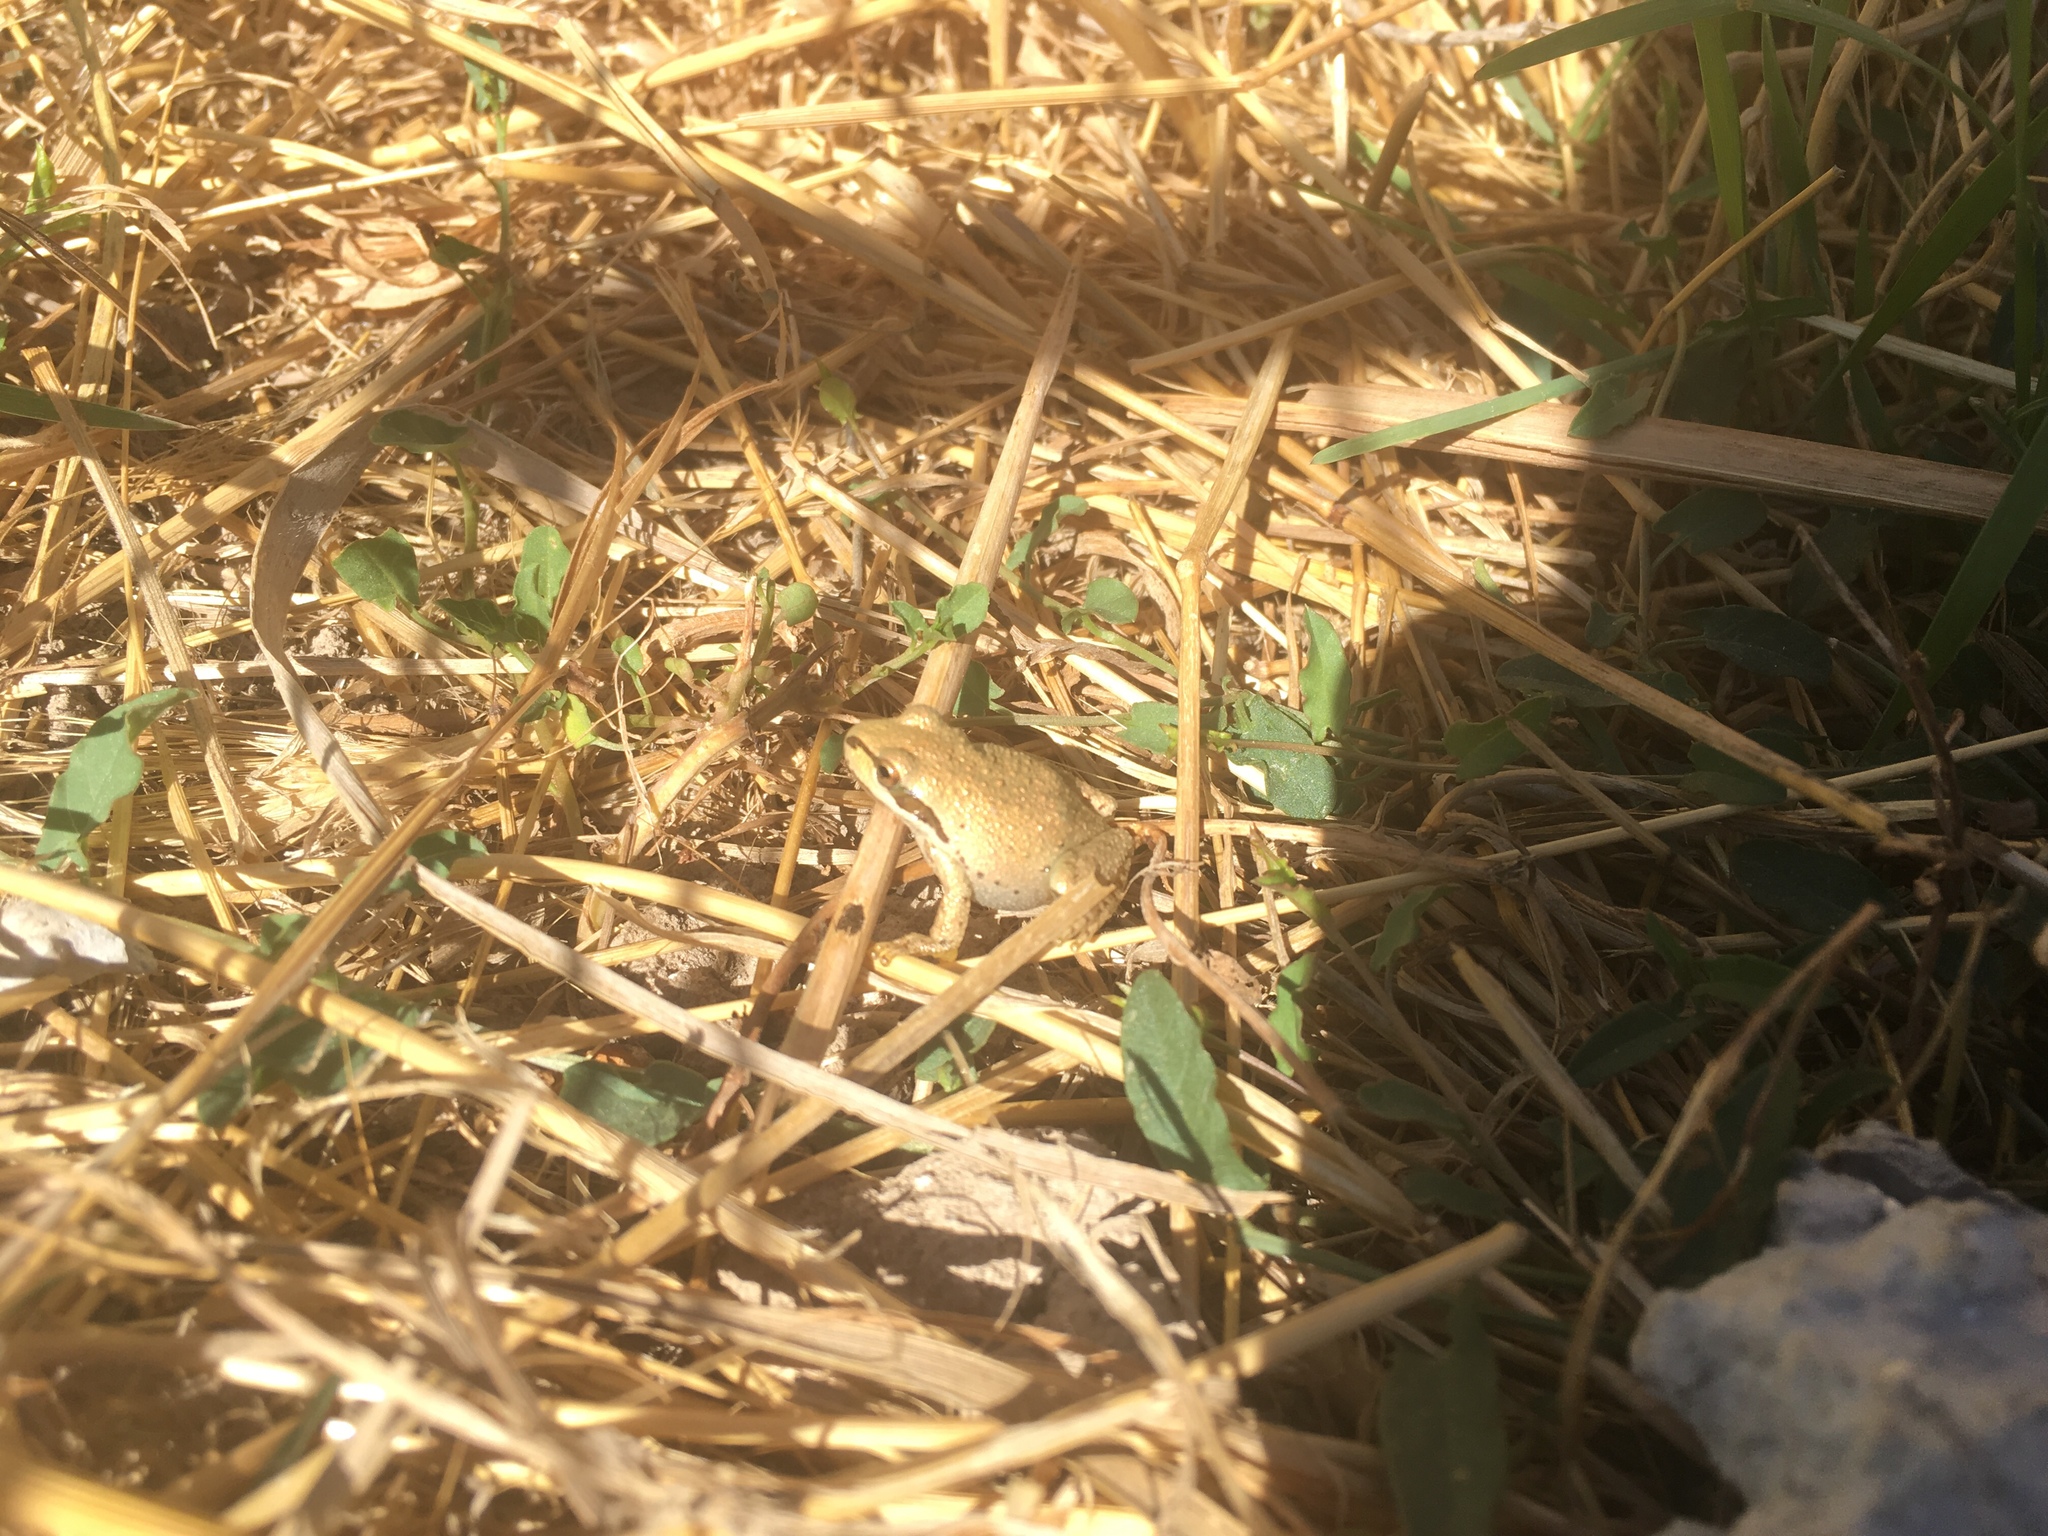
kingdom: Animalia
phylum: Chordata
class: Amphibia
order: Anura
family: Hylidae
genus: Pseudacris
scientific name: Pseudacris regilla
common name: Pacific chorus frog
